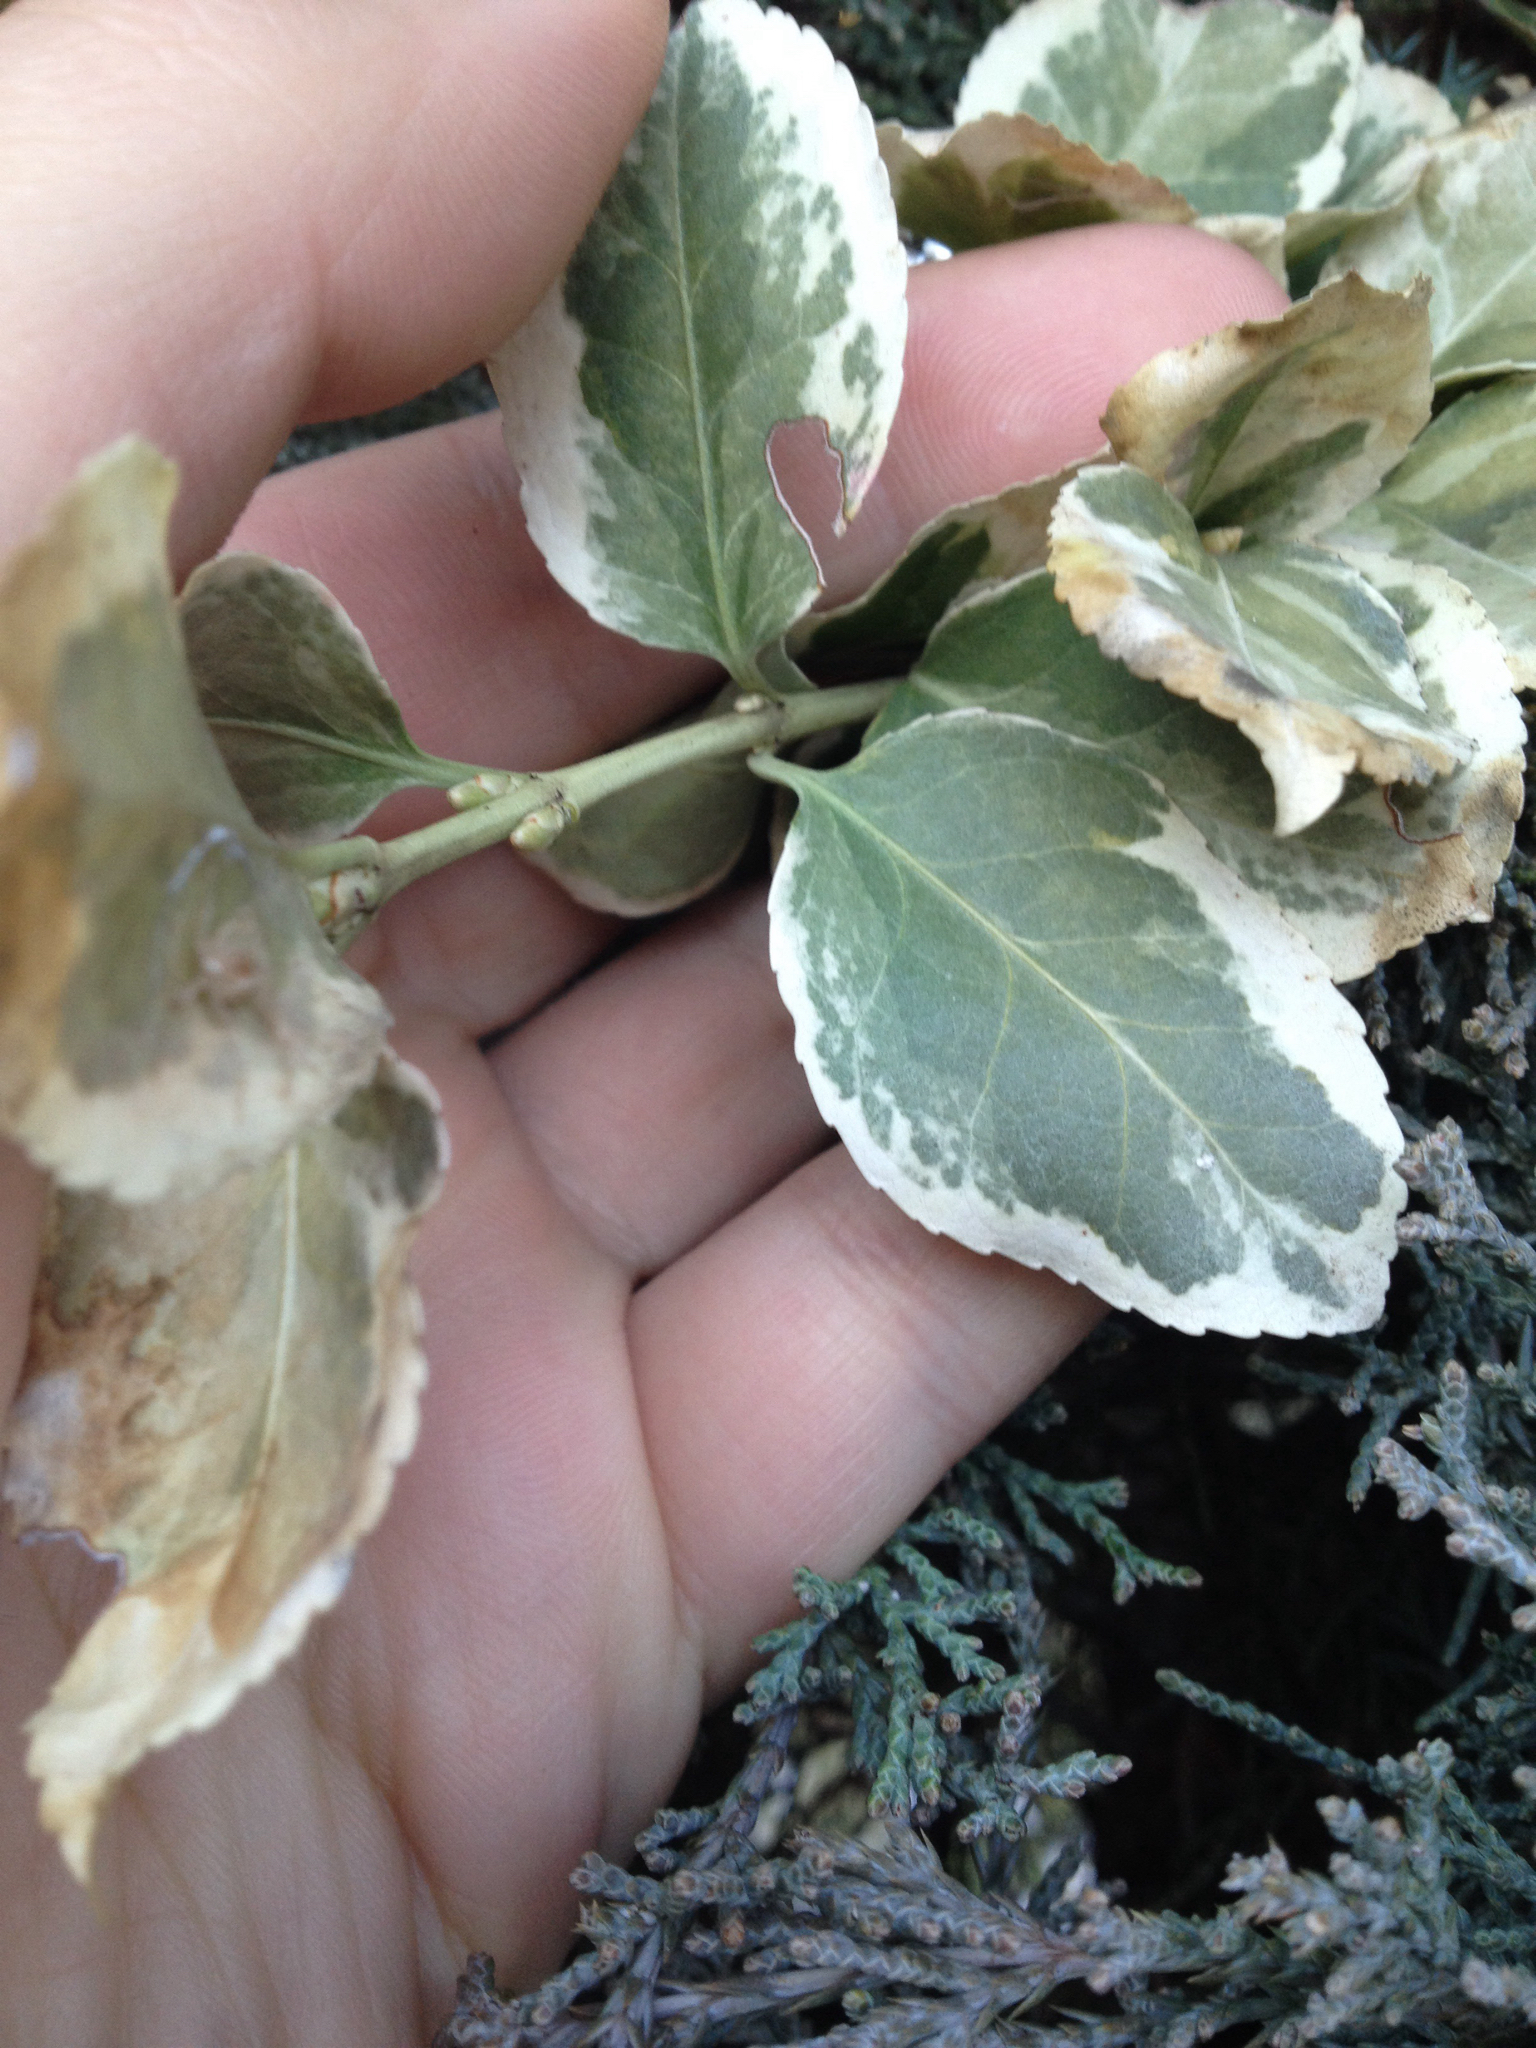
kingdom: Plantae
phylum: Tracheophyta
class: Magnoliopsida
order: Celastrales
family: Celastraceae
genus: Euonymus
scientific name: Euonymus fortunei
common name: Climbing euonymus
